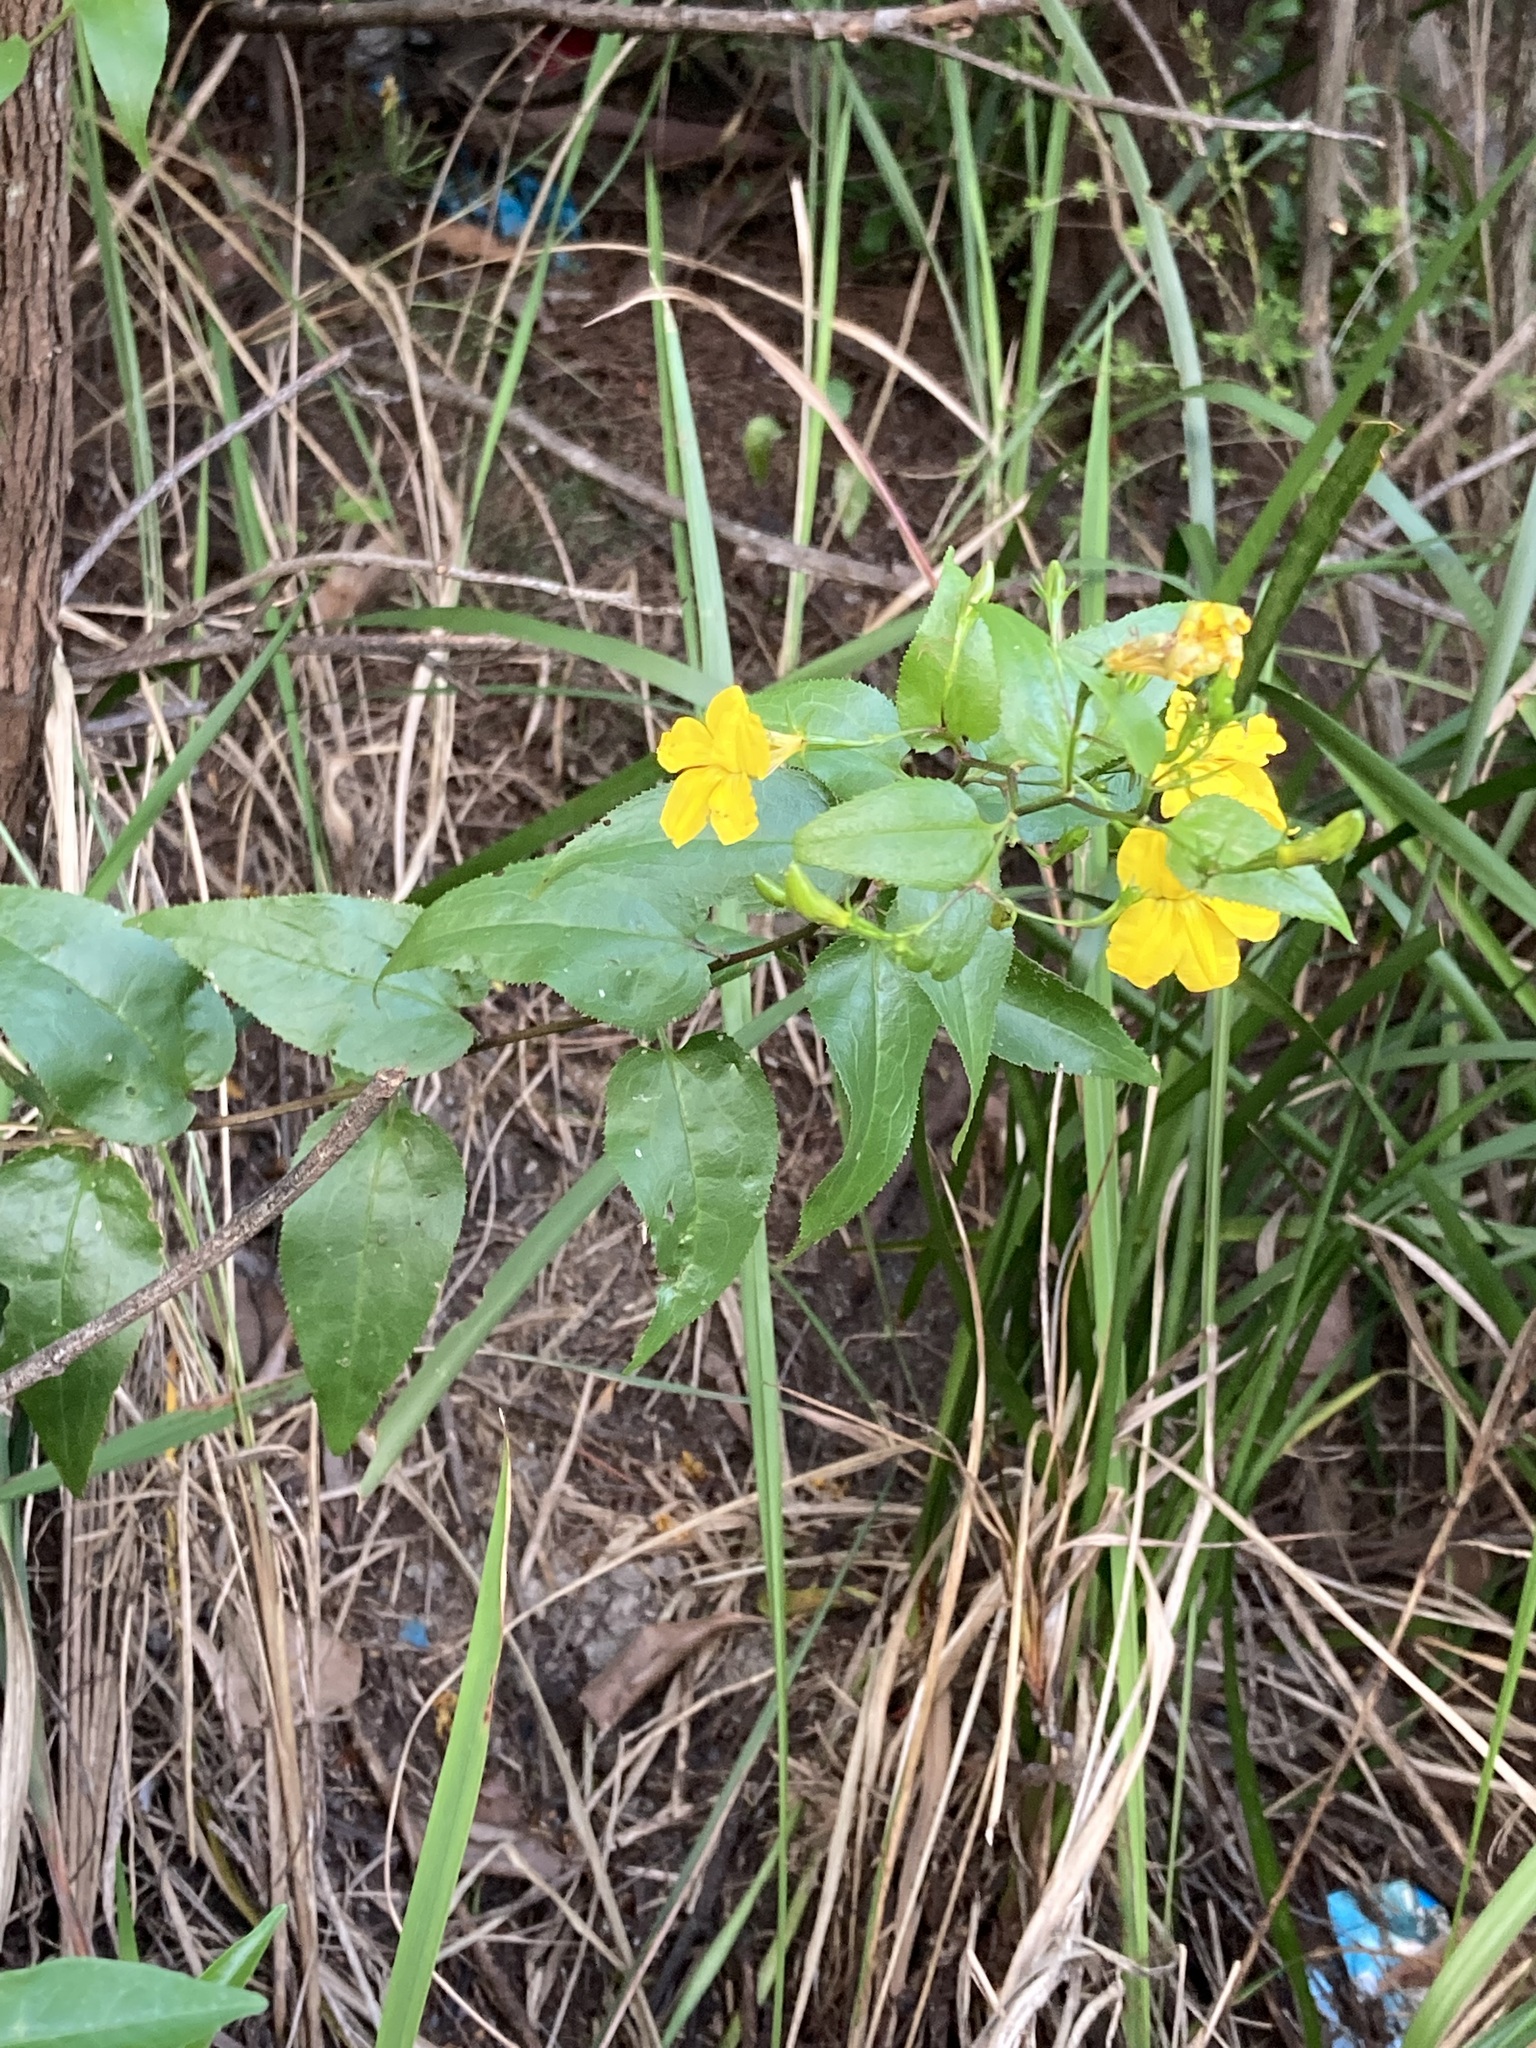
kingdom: Plantae
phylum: Tracheophyta
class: Magnoliopsida
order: Asterales
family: Goodeniaceae
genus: Goodenia
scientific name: Goodenia ovata
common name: Hop goodenia
